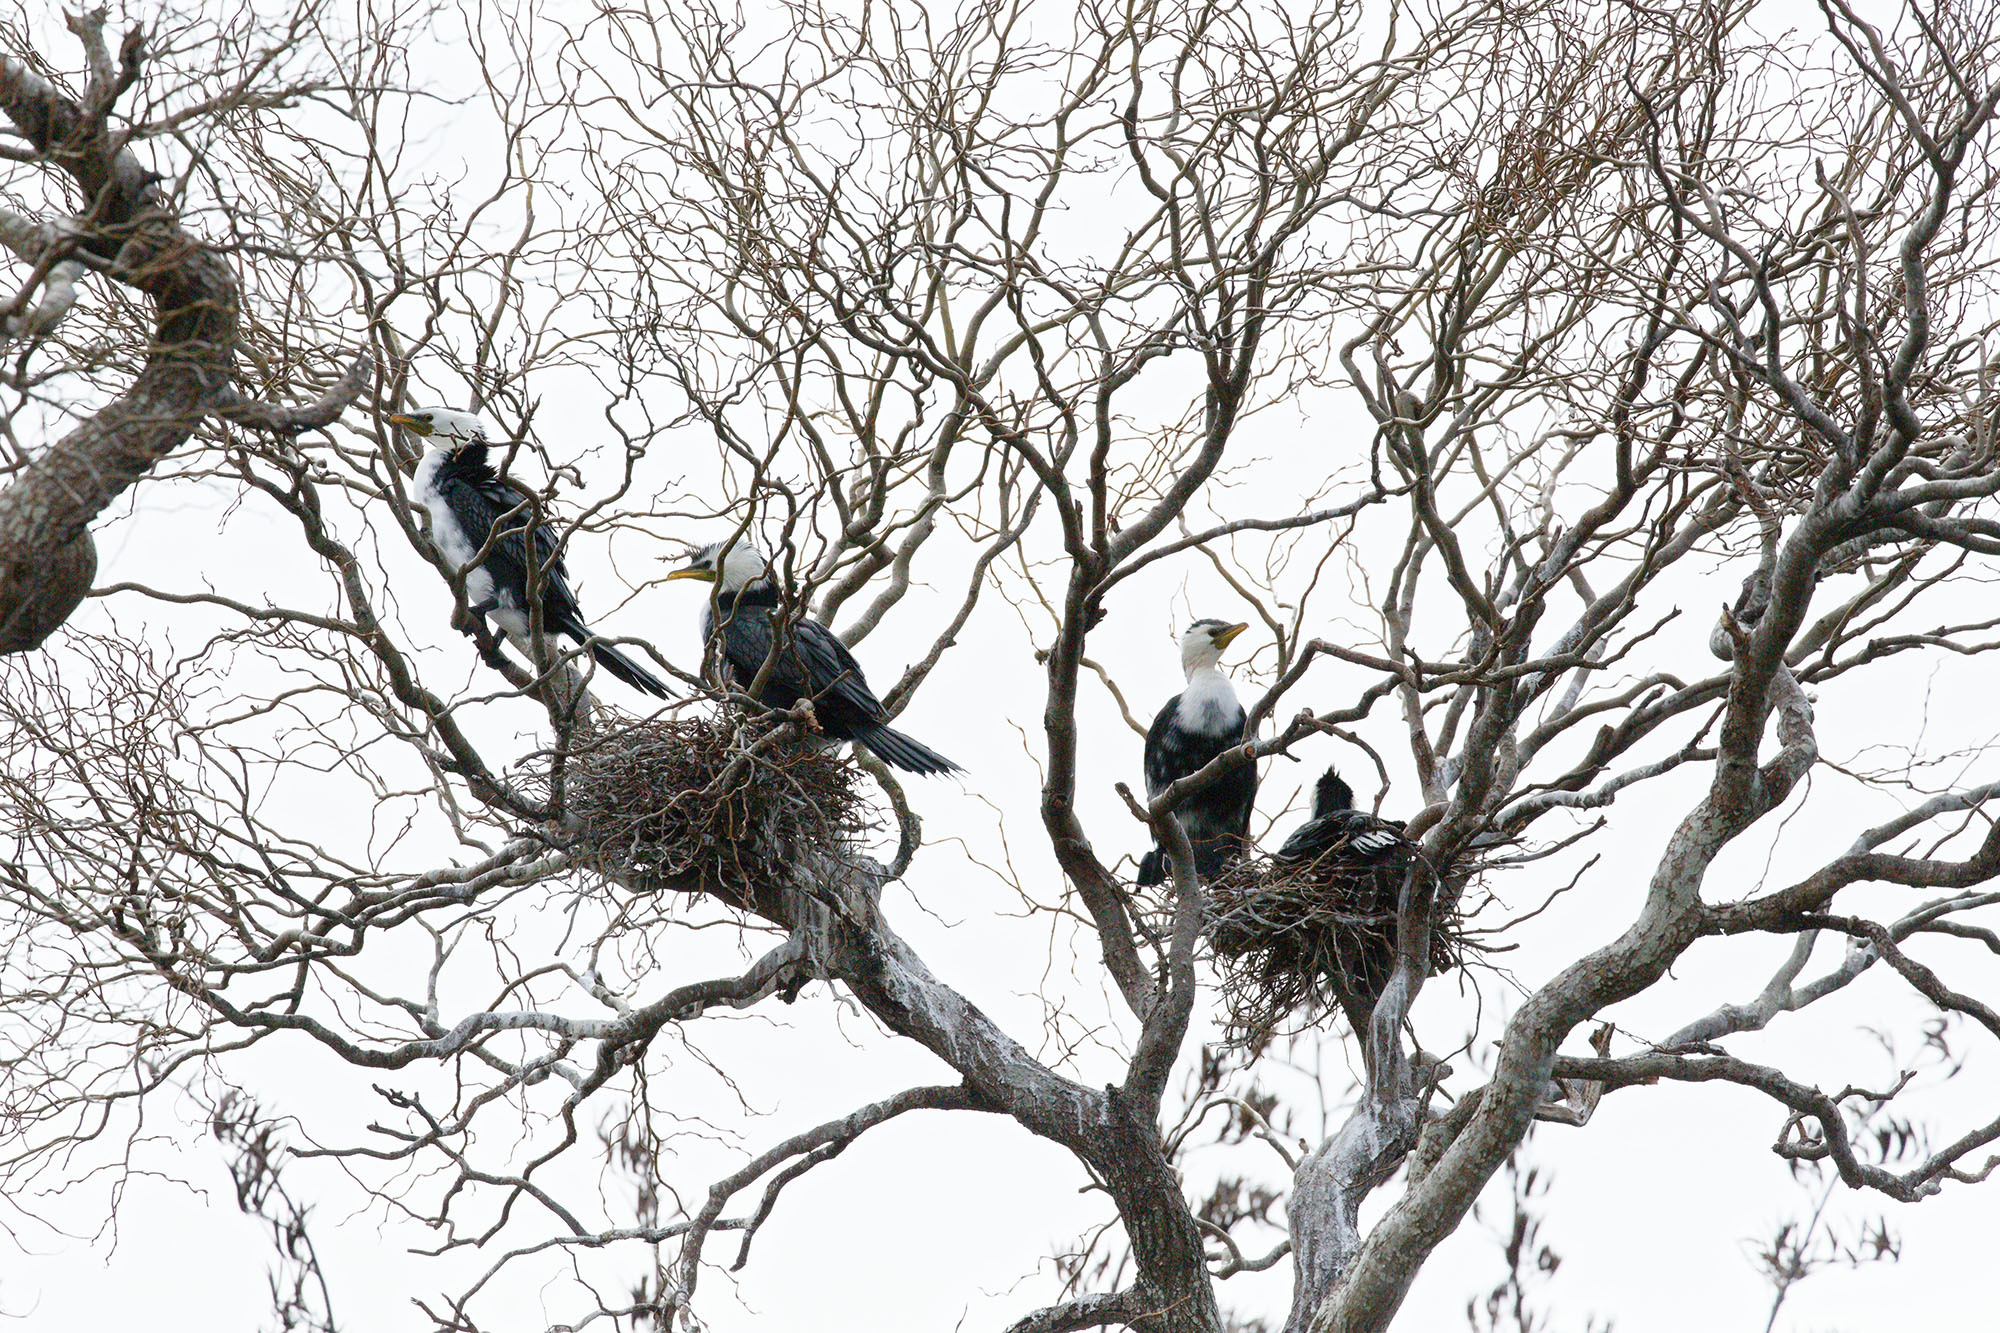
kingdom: Animalia
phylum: Chordata
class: Aves
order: Suliformes
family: Phalacrocoracidae
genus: Microcarbo
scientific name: Microcarbo melanoleucos
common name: Little pied cormorant
